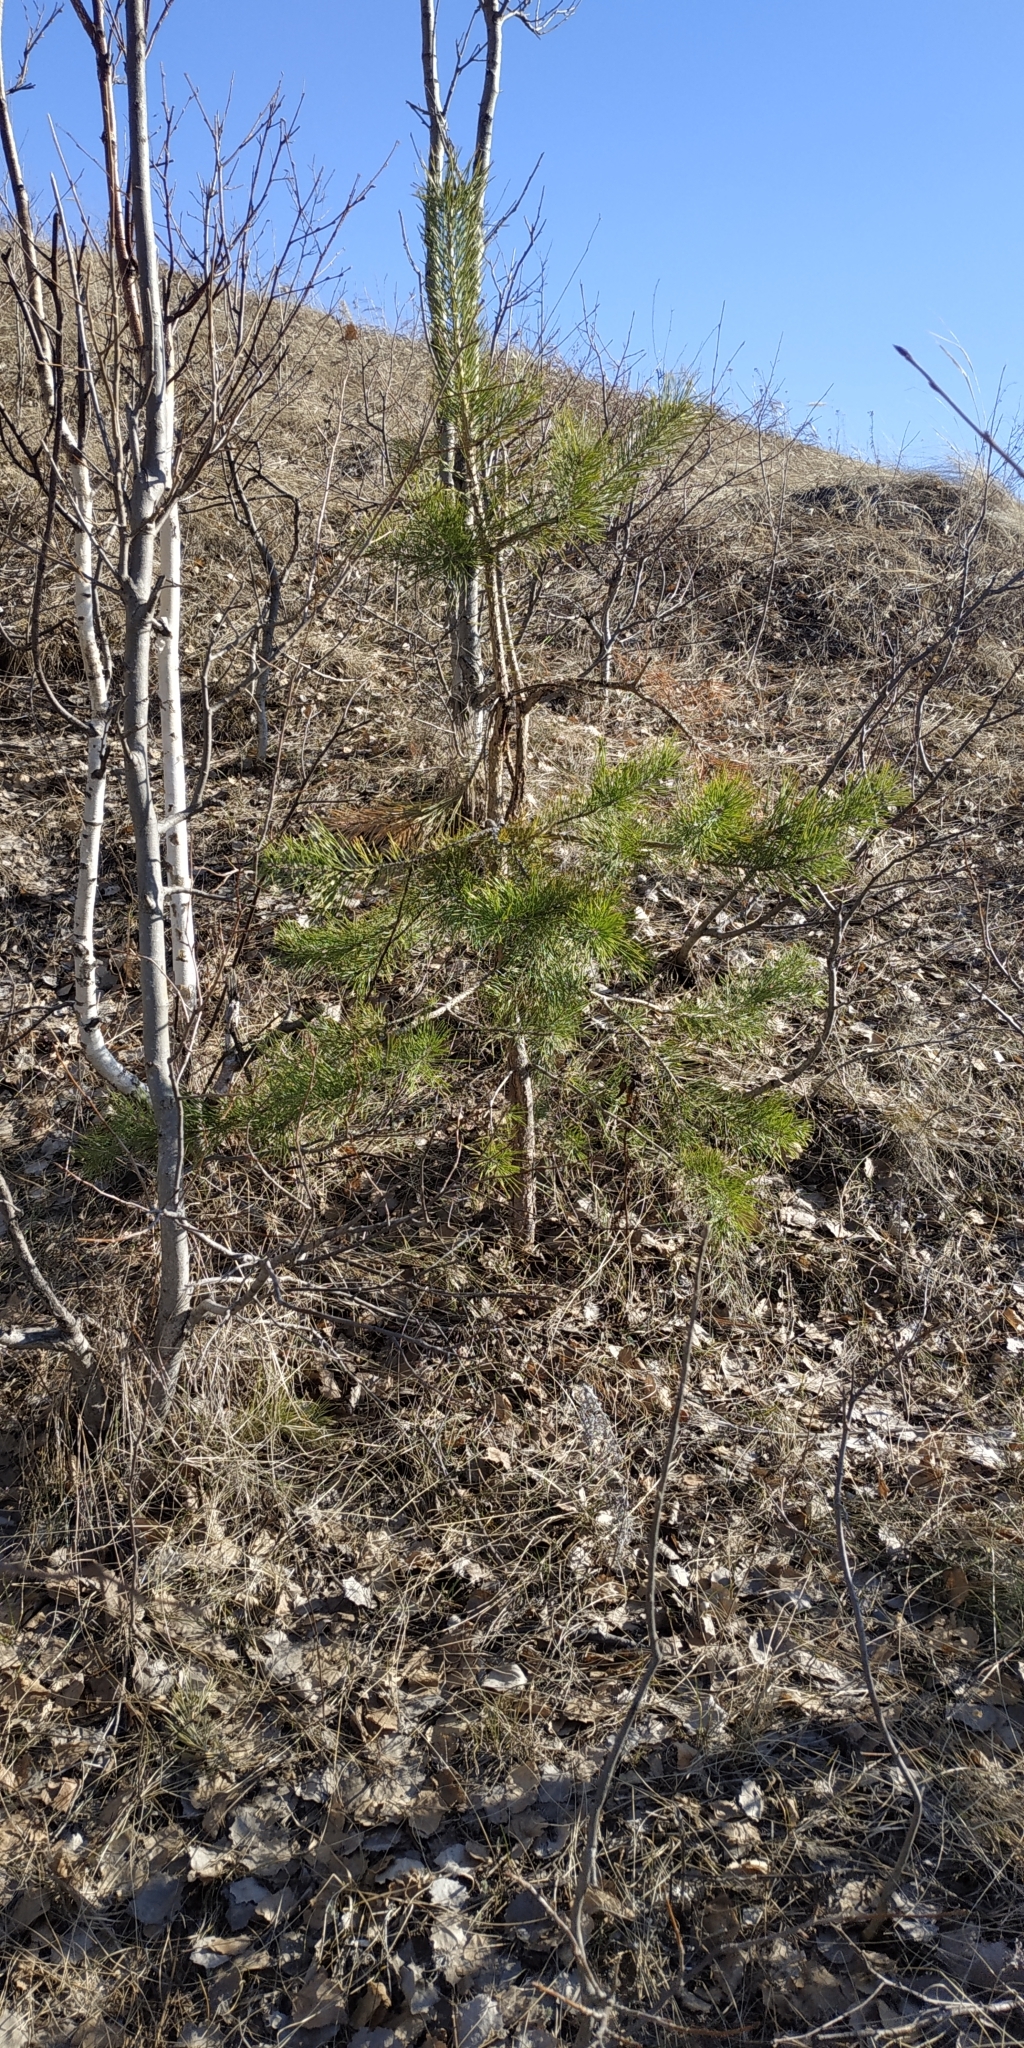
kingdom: Plantae
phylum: Tracheophyta
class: Pinopsida
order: Pinales
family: Pinaceae
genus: Pinus
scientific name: Pinus sylvestris
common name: Scots pine
